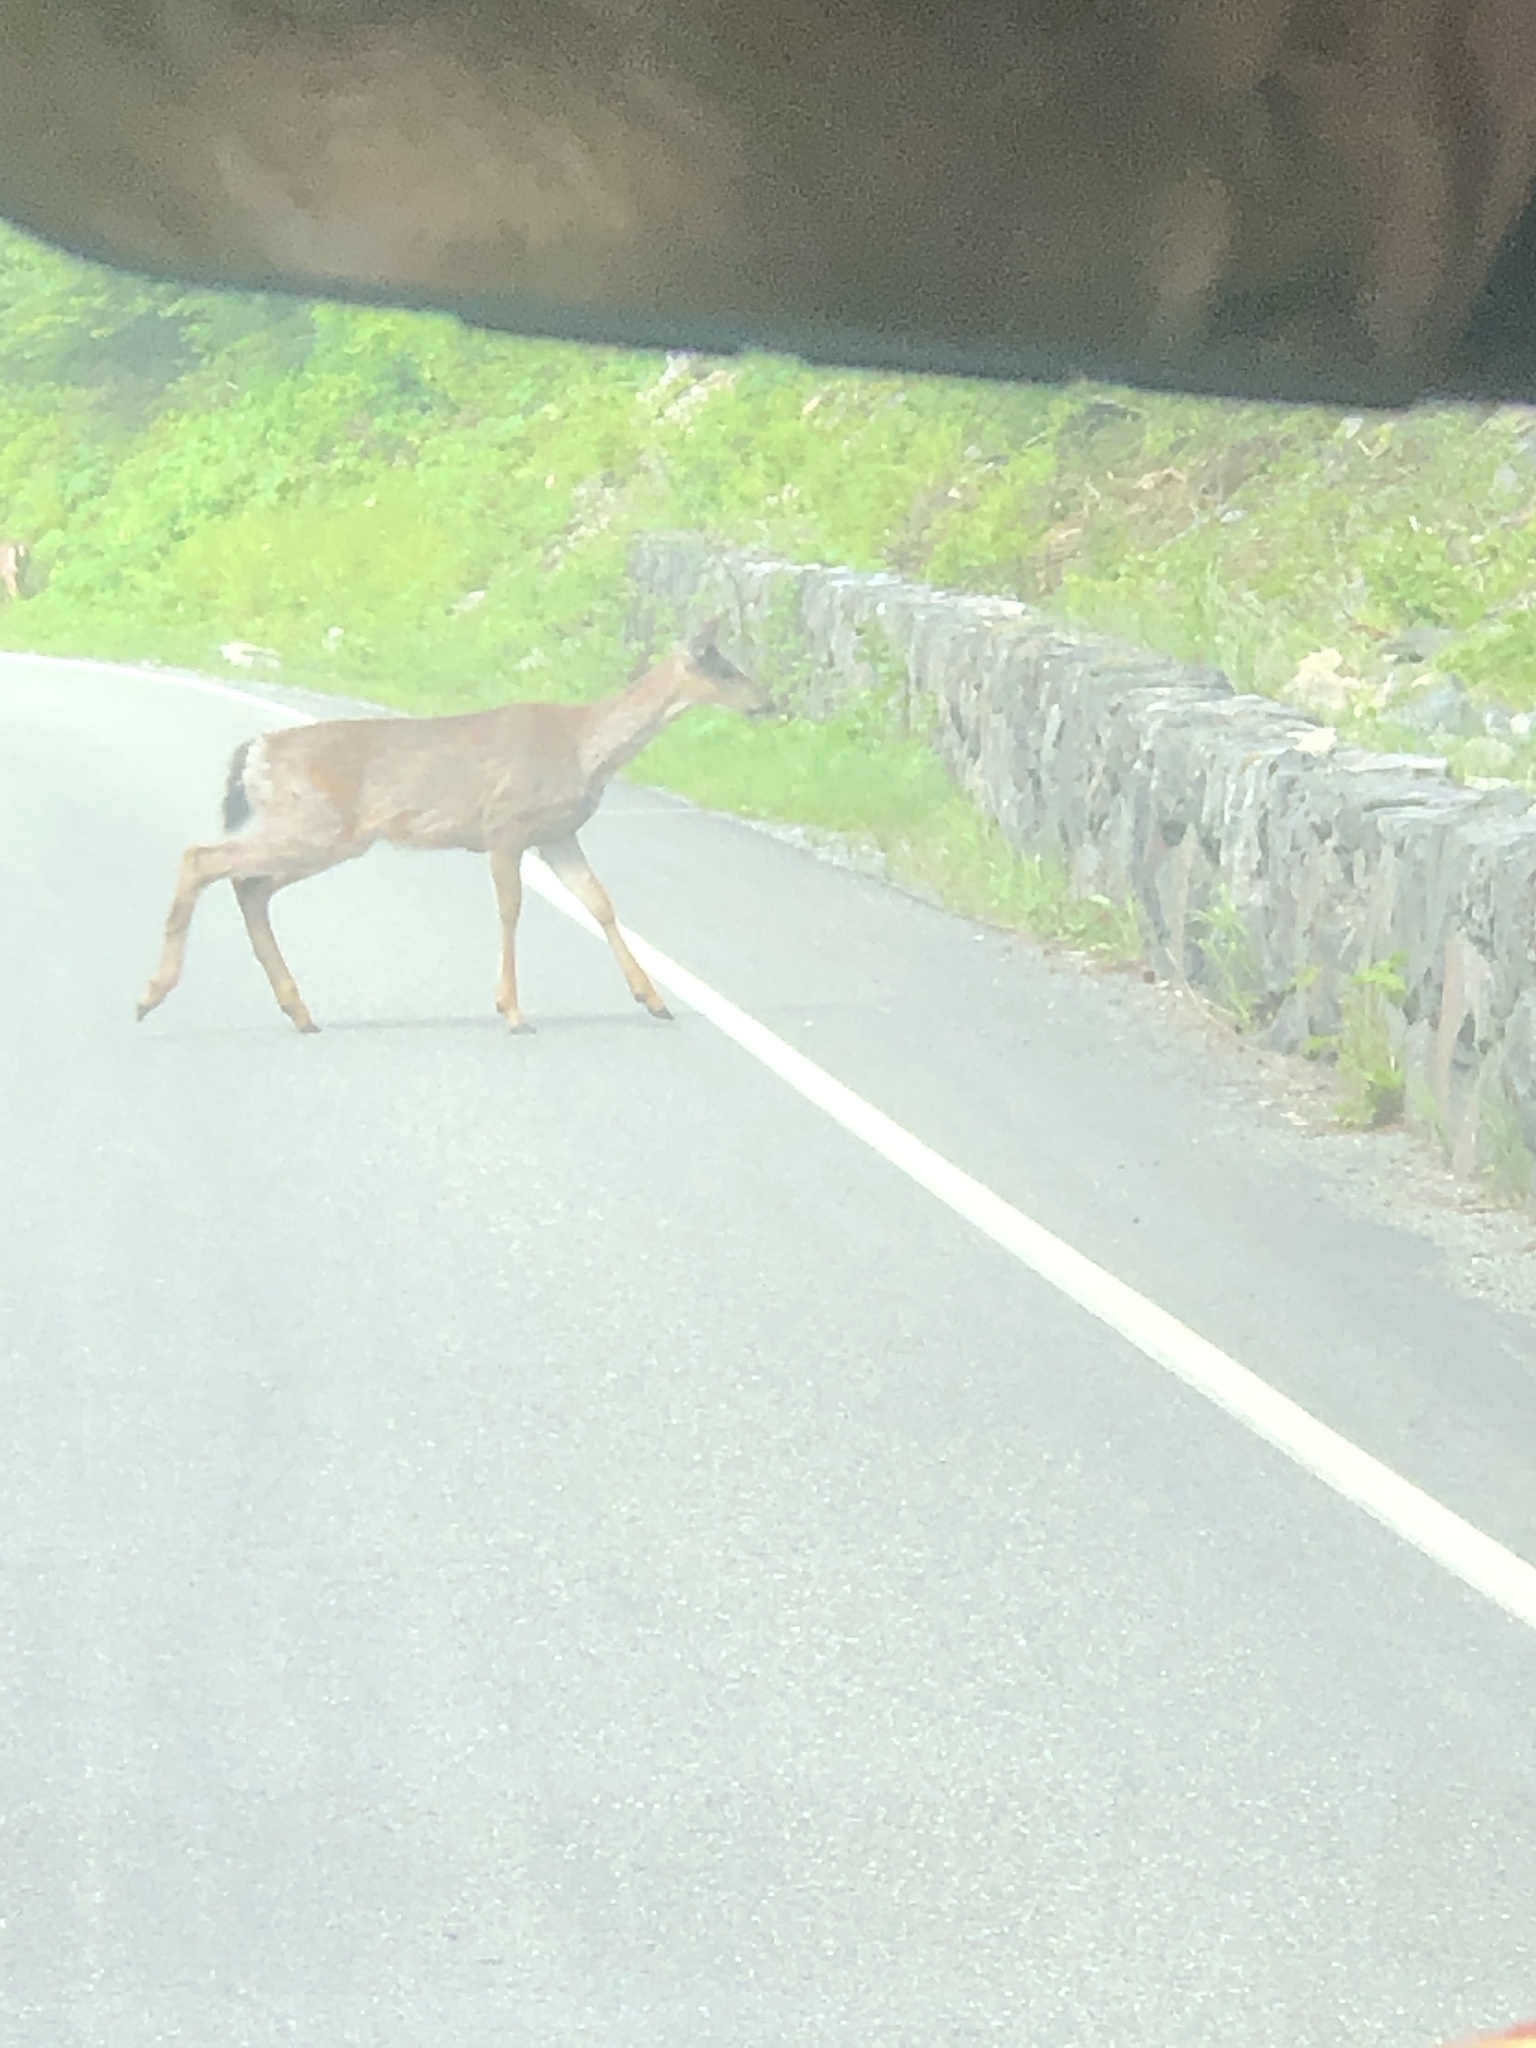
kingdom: Animalia
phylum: Chordata
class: Mammalia
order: Artiodactyla
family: Cervidae
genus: Odocoileus
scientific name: Odocoileus hemionus
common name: Mule deer
